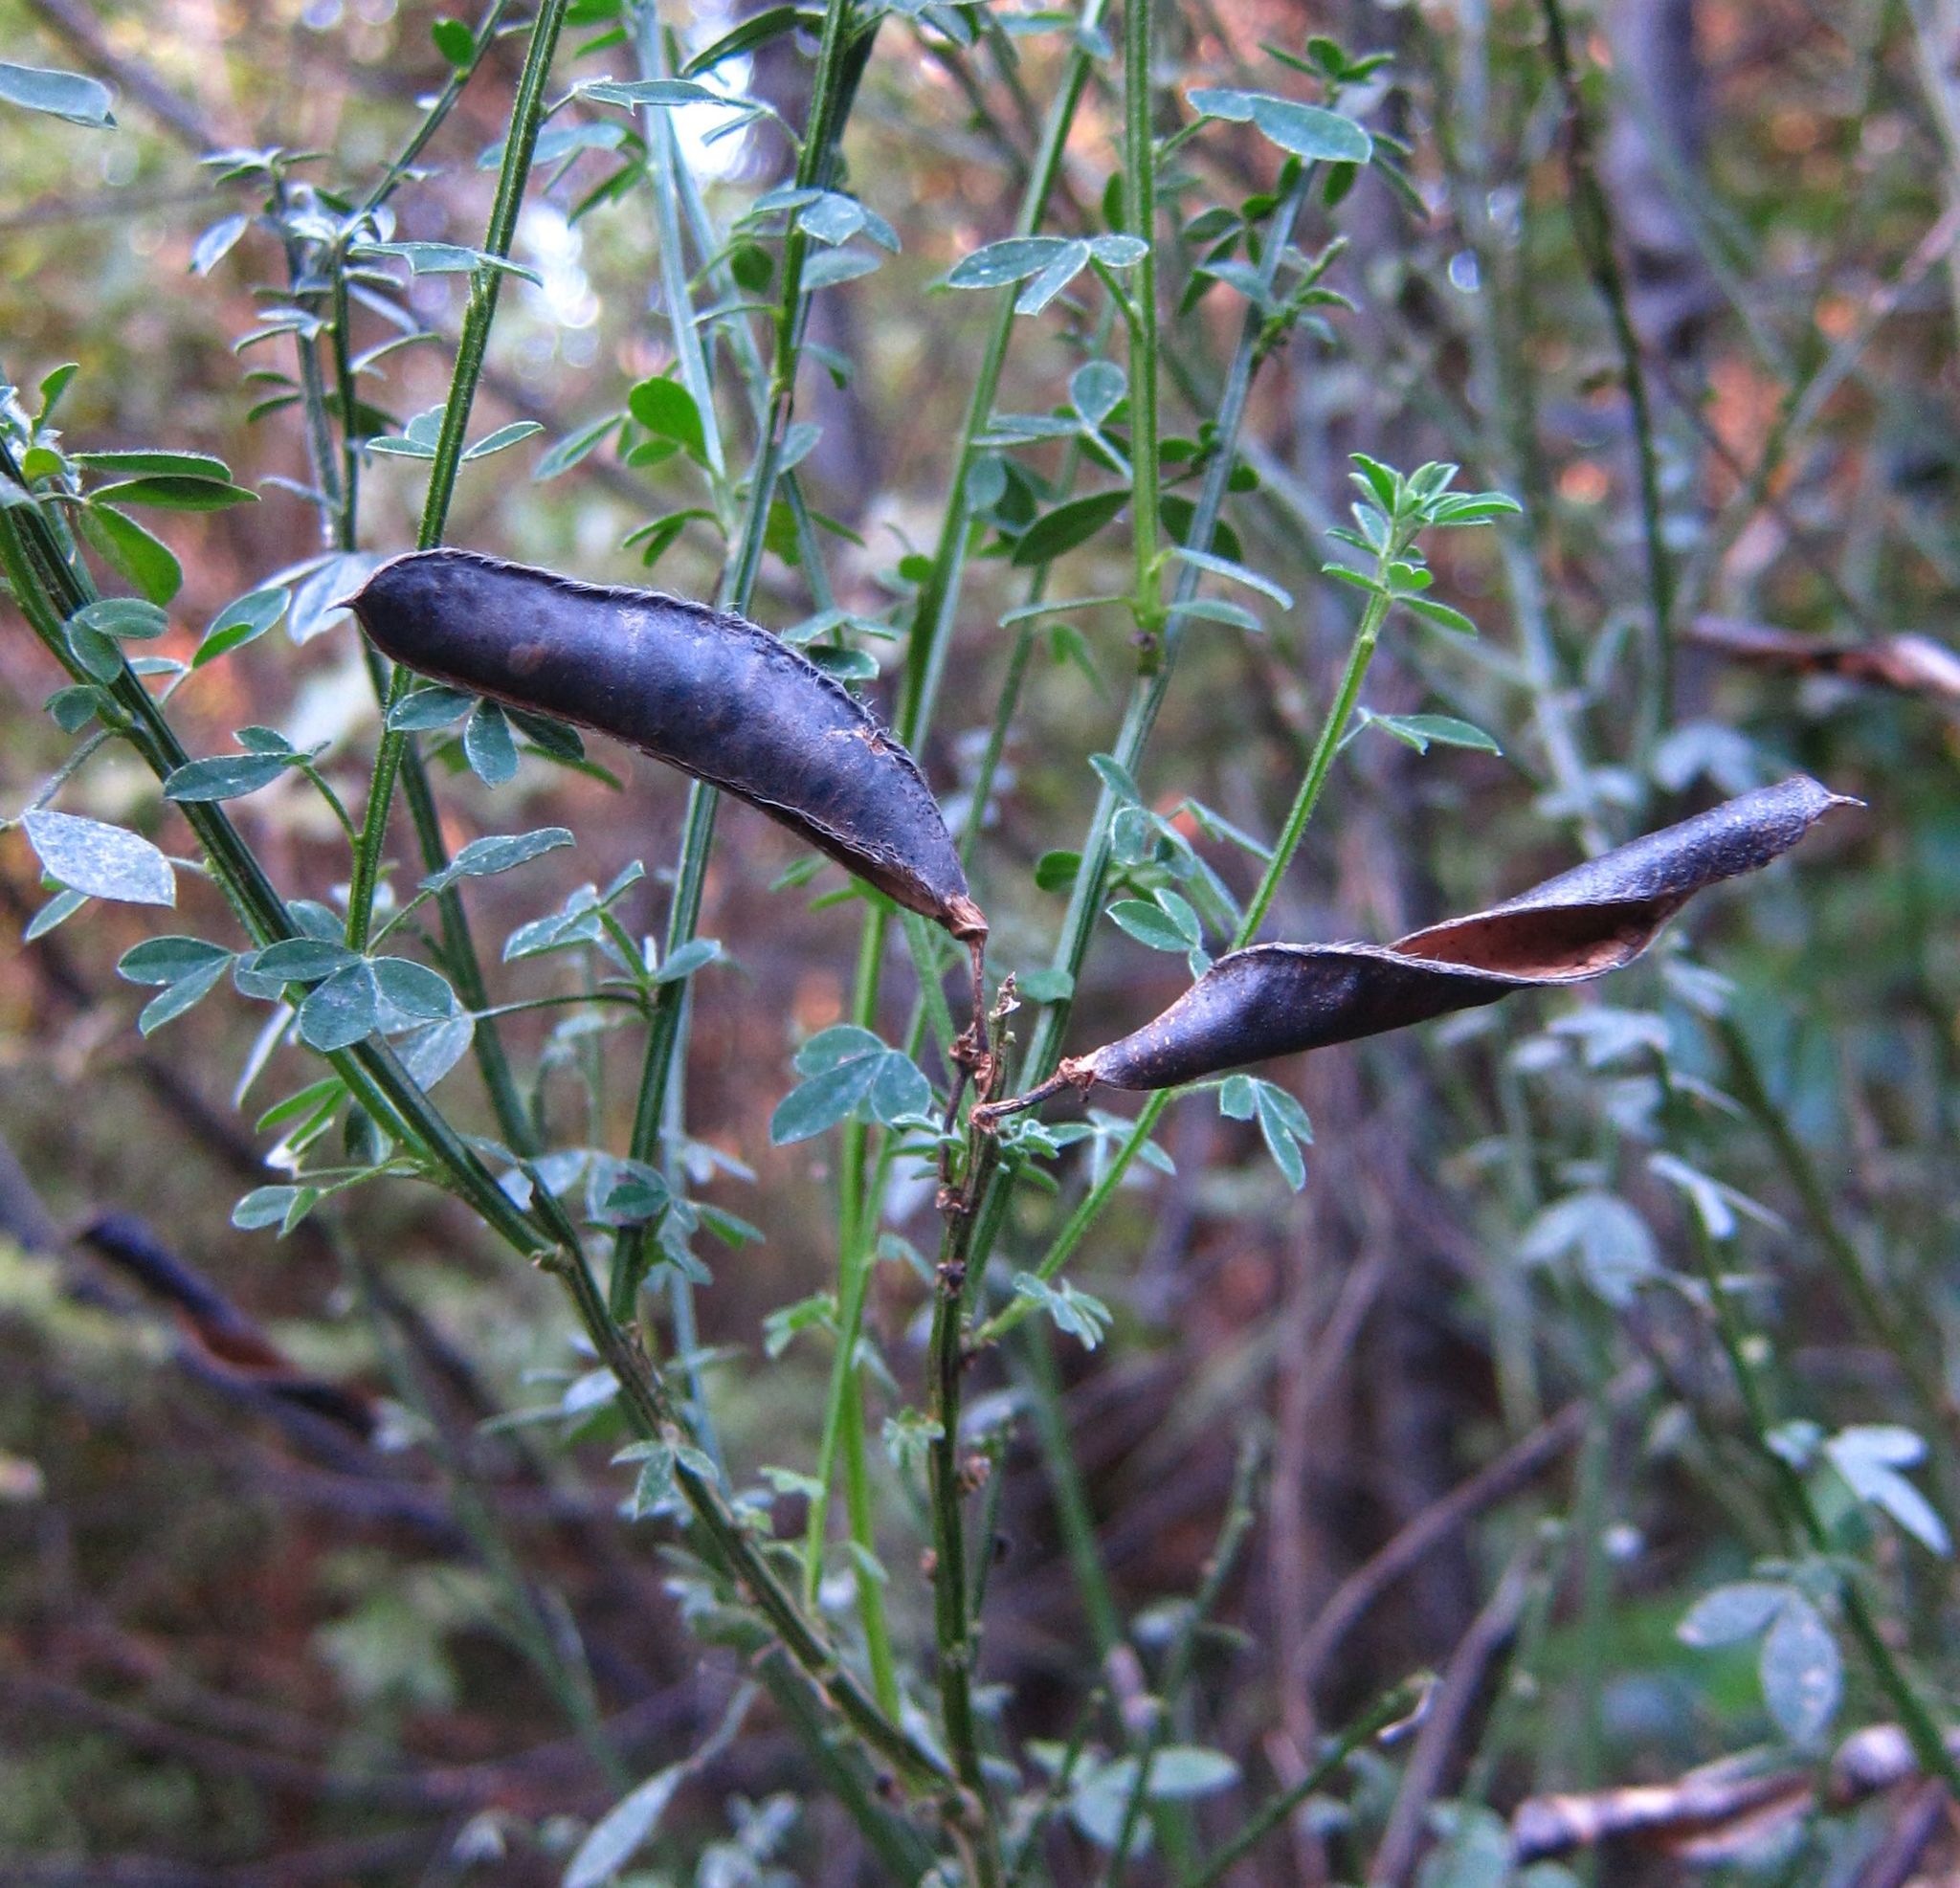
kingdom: Plantae
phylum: Tracheophyta
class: Magnoliopsida
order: Fabales
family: Fabaceae
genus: Cytisus
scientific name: Cytisus scoparius
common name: Scotch broom
